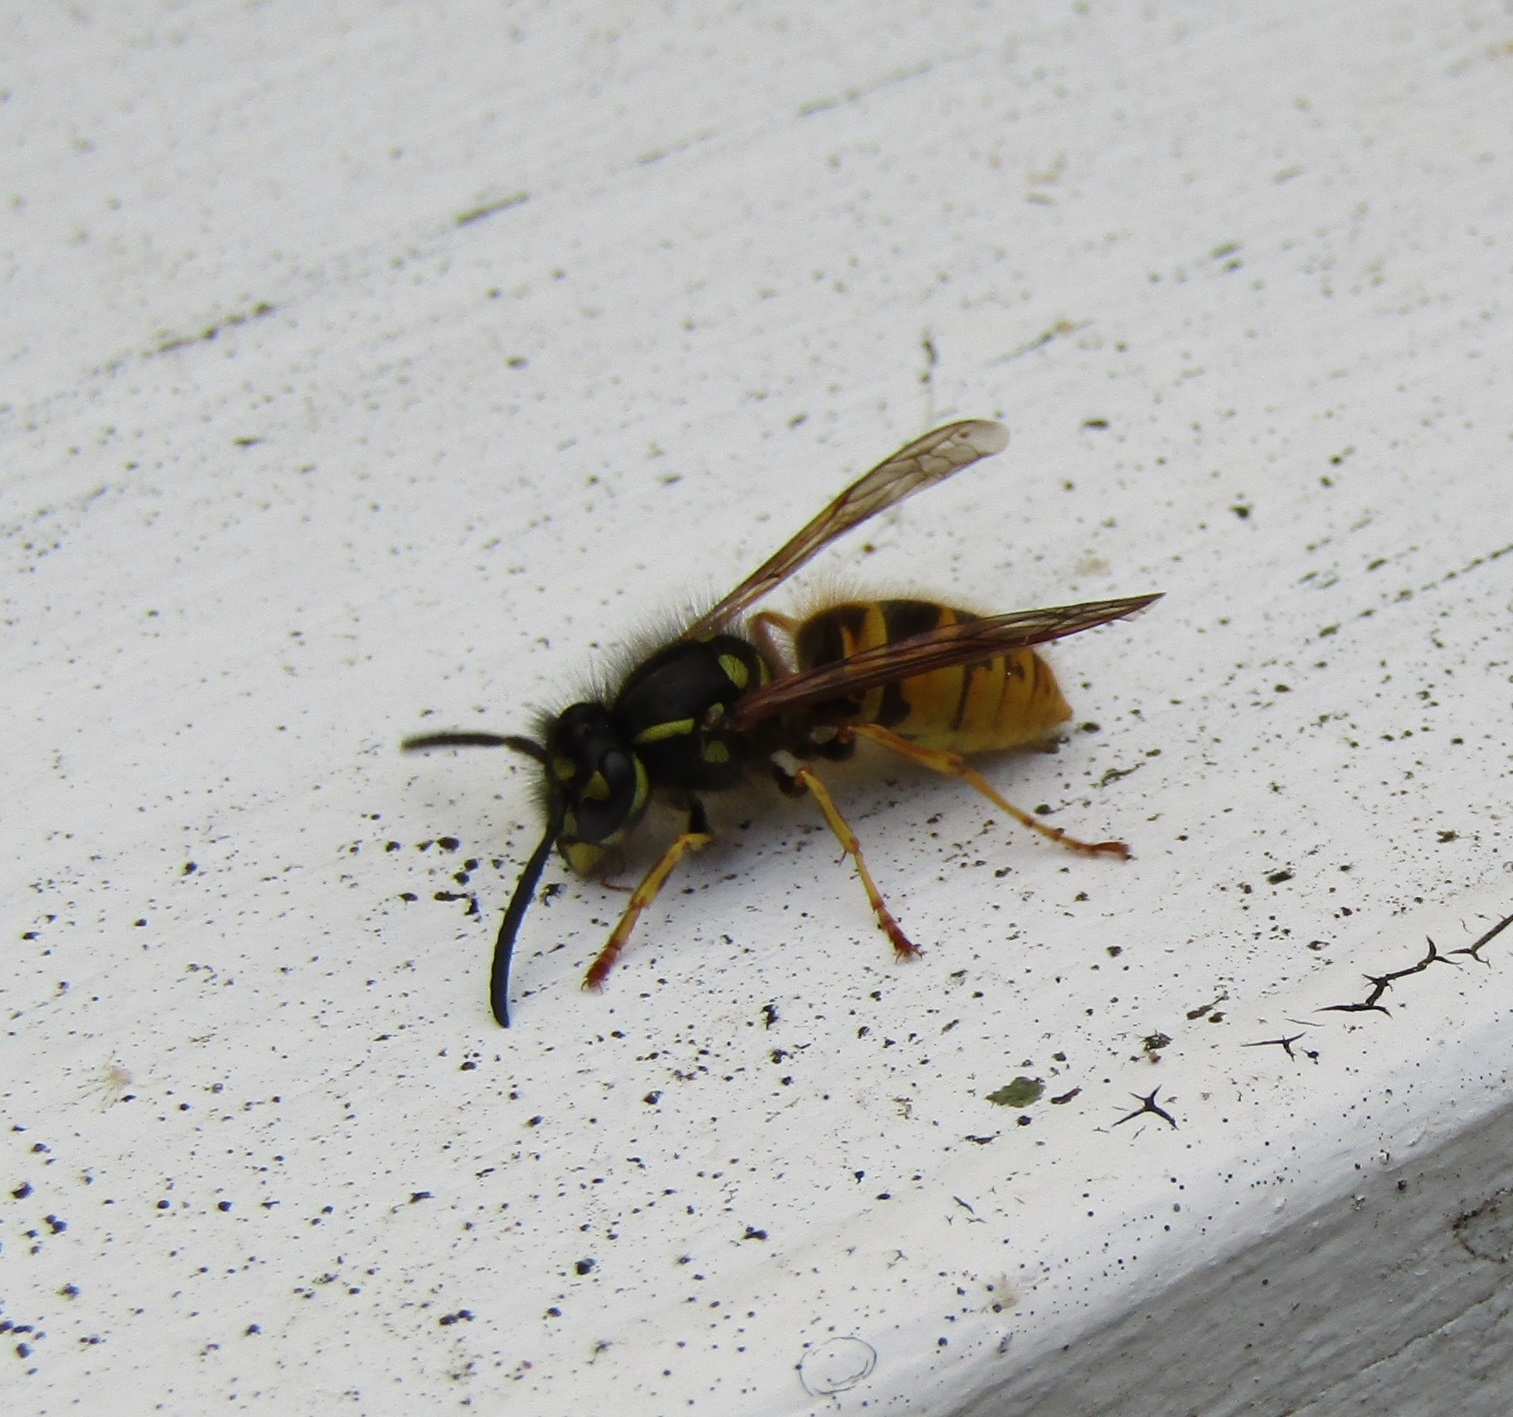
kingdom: Animalia
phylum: Arthropoda
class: Insecta
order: Hymenoptera
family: Vespidae
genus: Vespula
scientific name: Vespula vulgaris
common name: Common wasp
